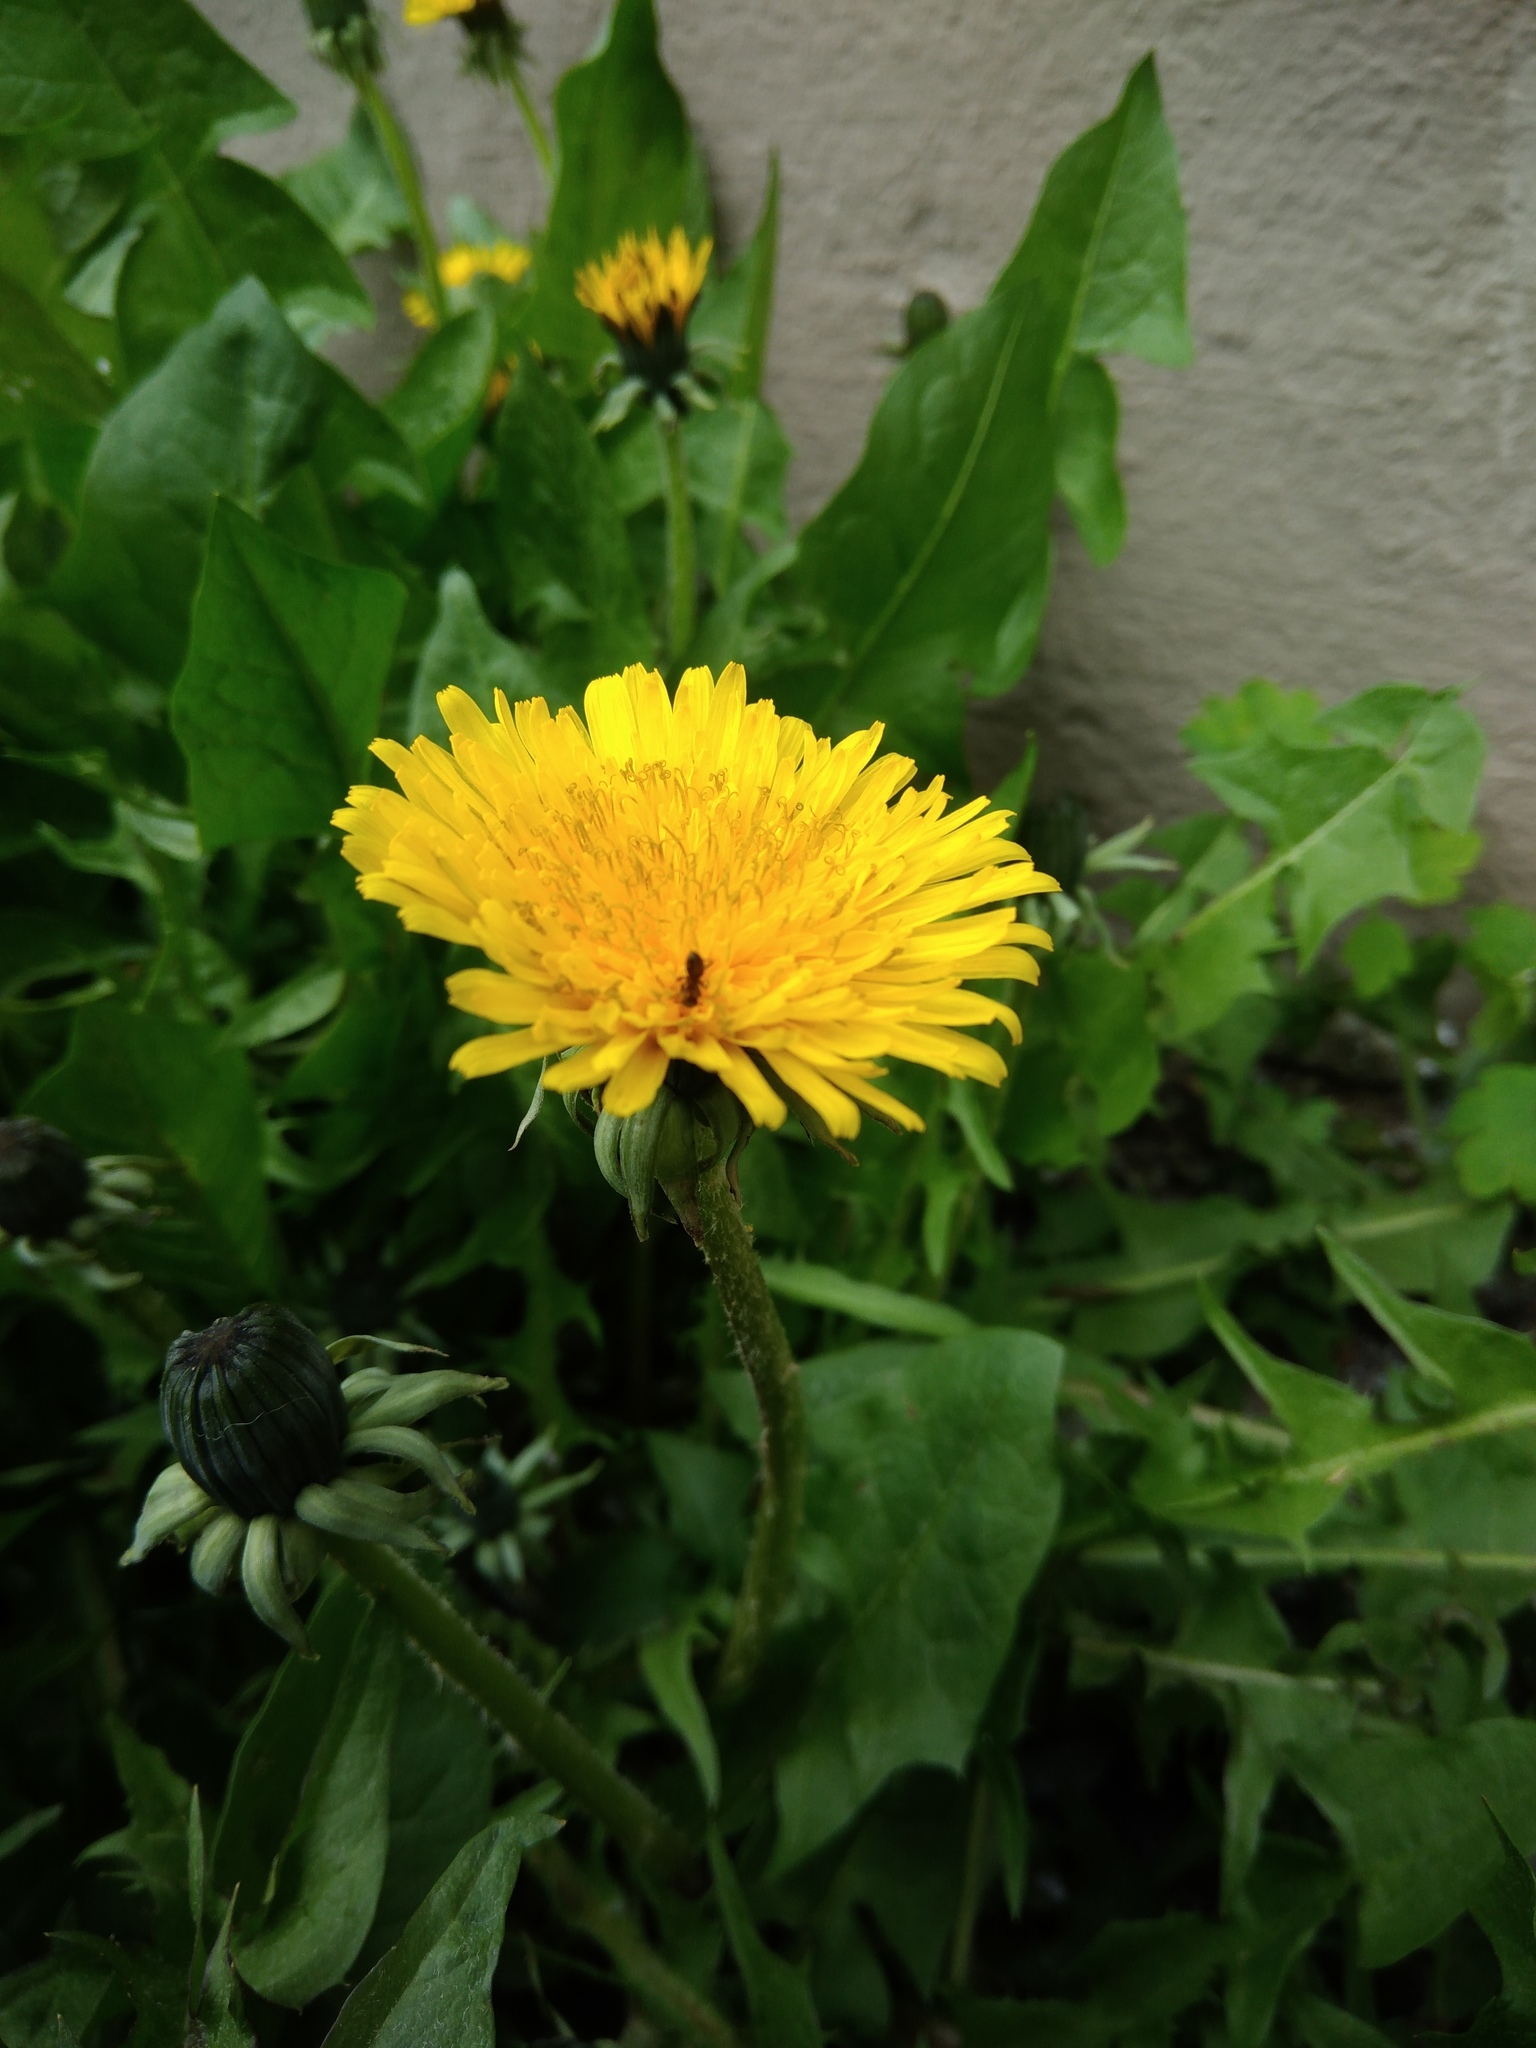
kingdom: Plantae
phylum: Tracheophyta
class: Magnoliopsida
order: Asterales
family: Asteraceae
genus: Taraxacum
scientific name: Taraxacum officinale
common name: Common dandelion
